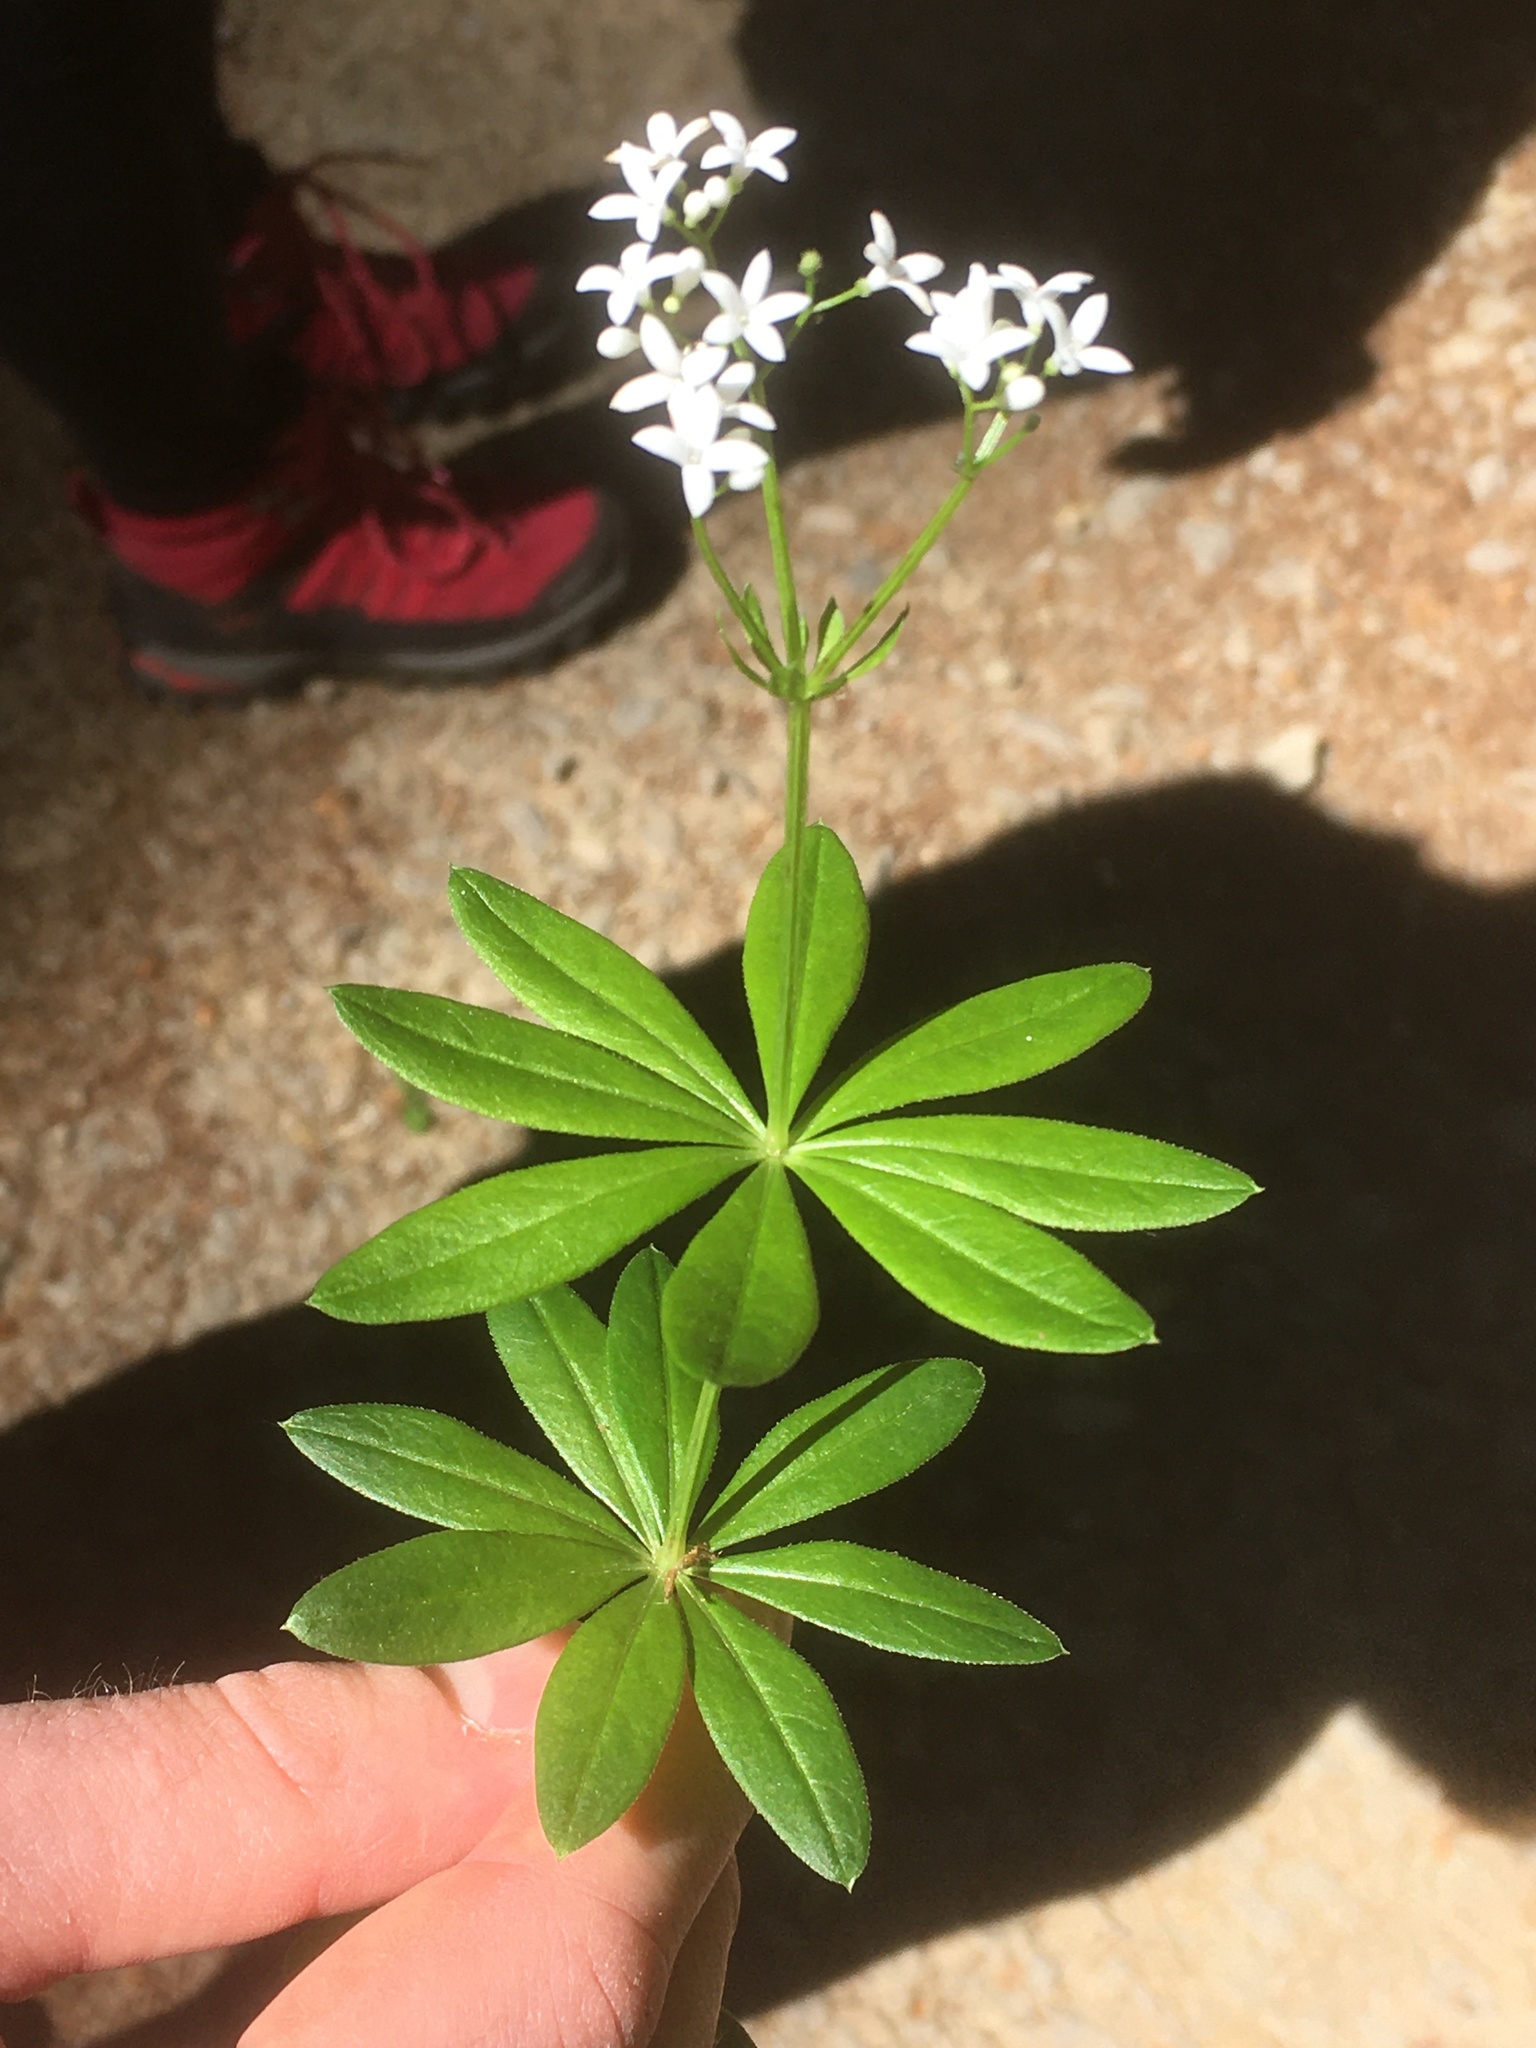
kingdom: Plantae
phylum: Tracheophyta
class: Magnoliopsida
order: Gentianales
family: Rubiaceae
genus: Galium
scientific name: Galium odoratum
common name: Sweet woodruff
